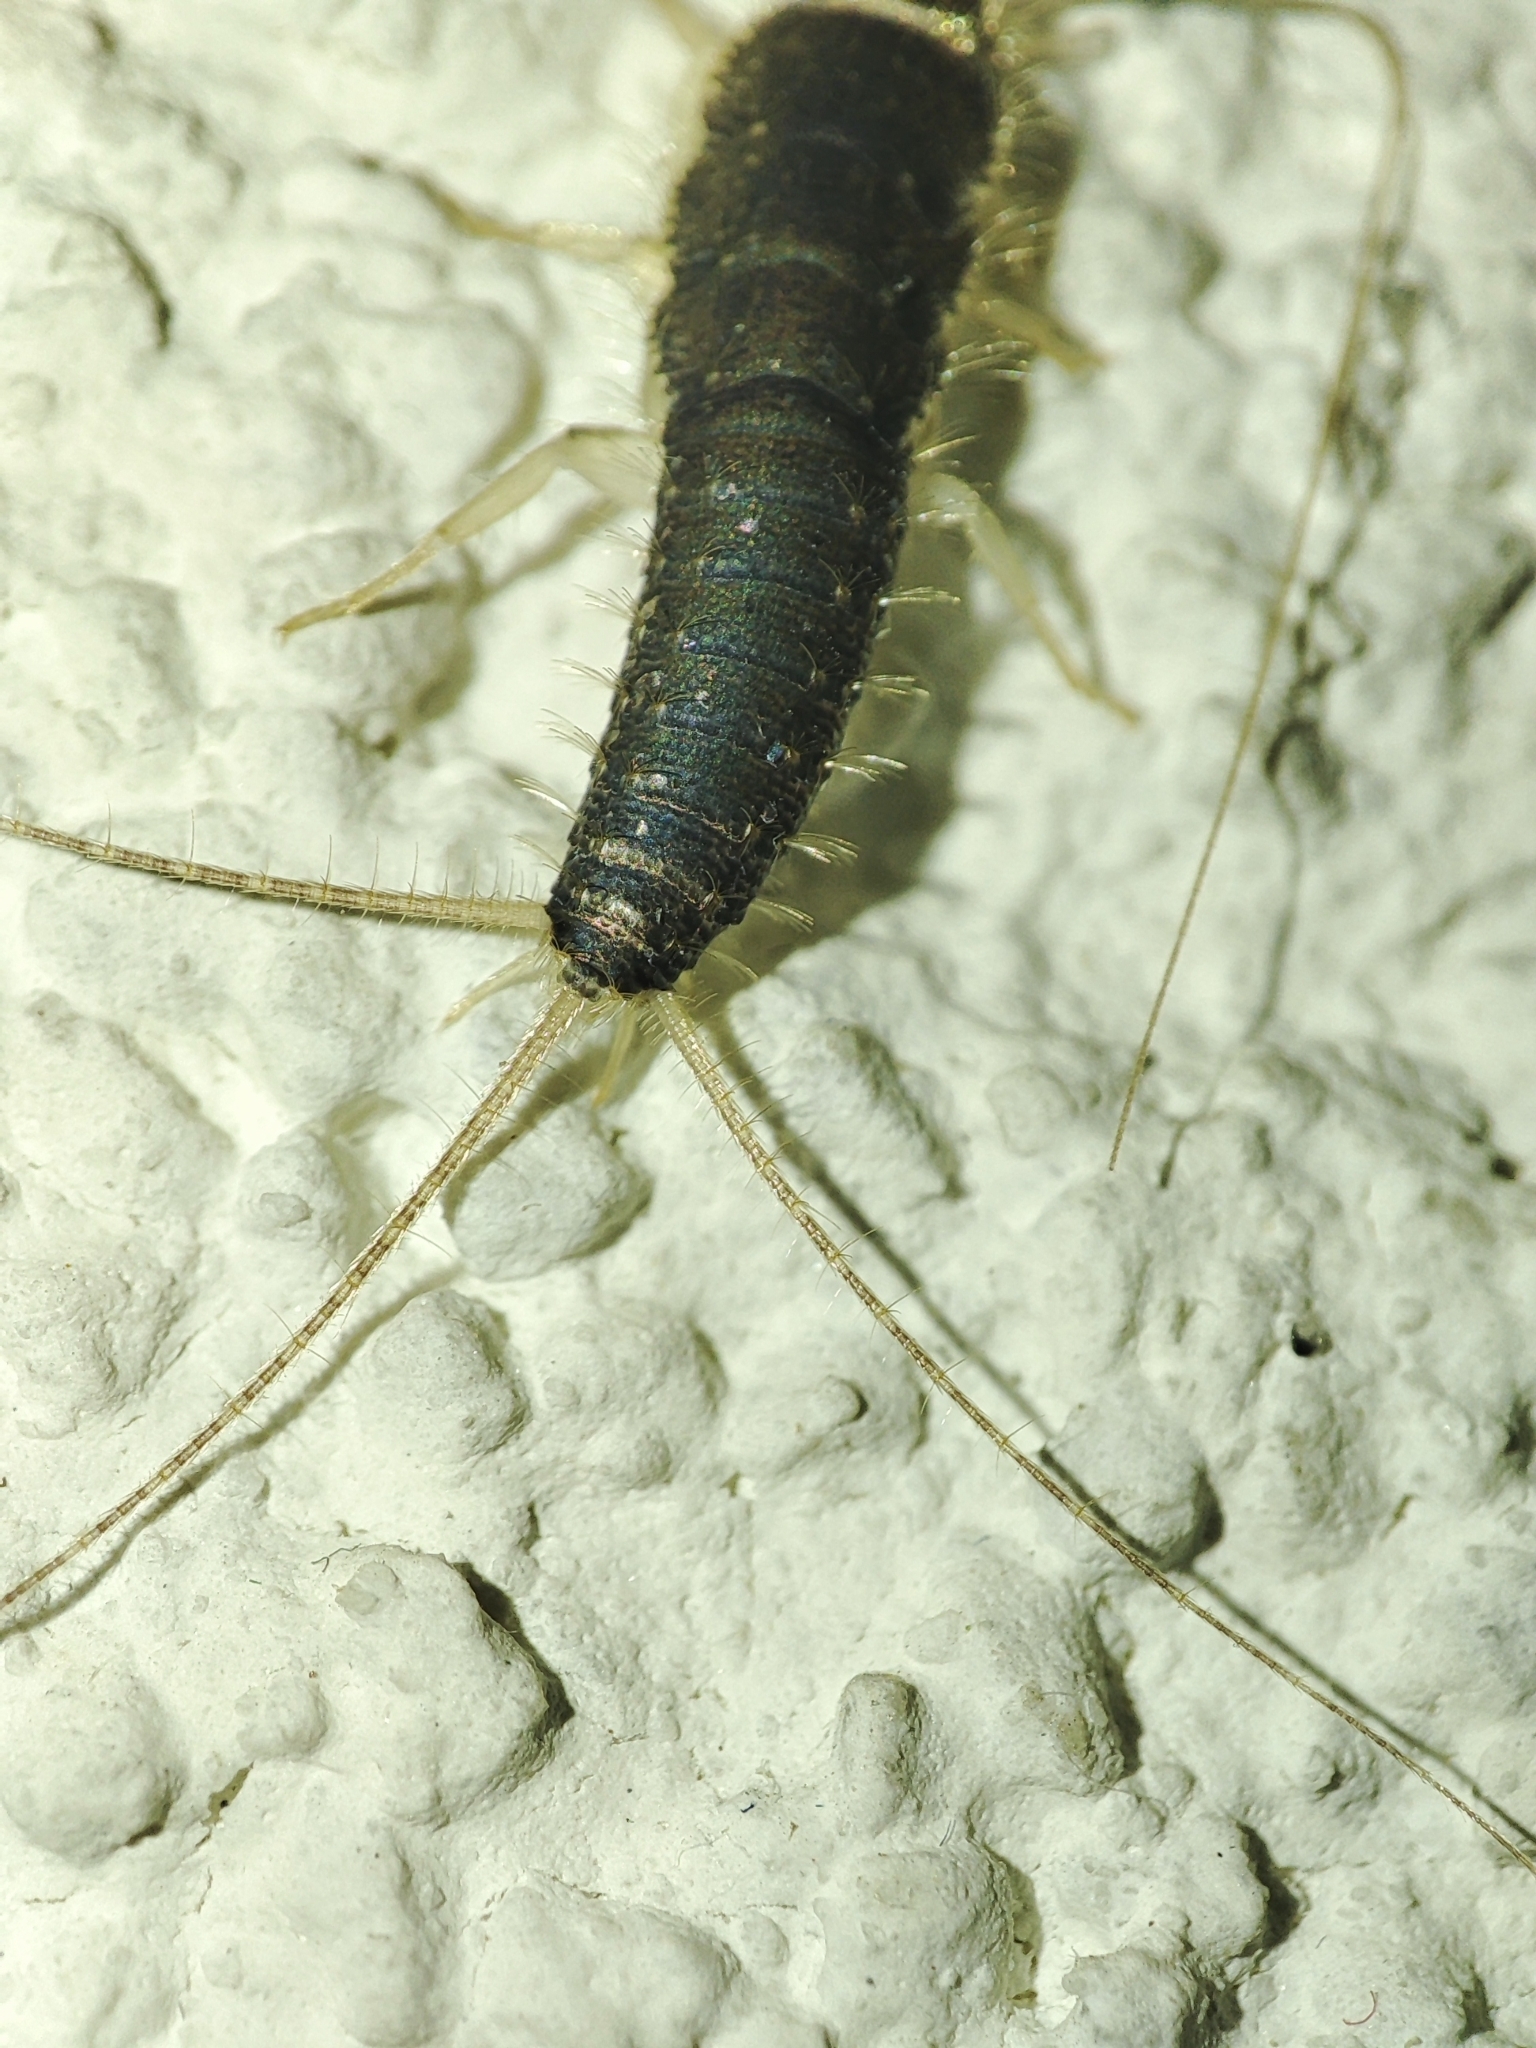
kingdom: Animalia
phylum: Arthropoda
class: Insecta
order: Zygentoma
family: Lepismatidae
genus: Ctenolepisma
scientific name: Ctenolepisma longicaudatum
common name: Silverfish
